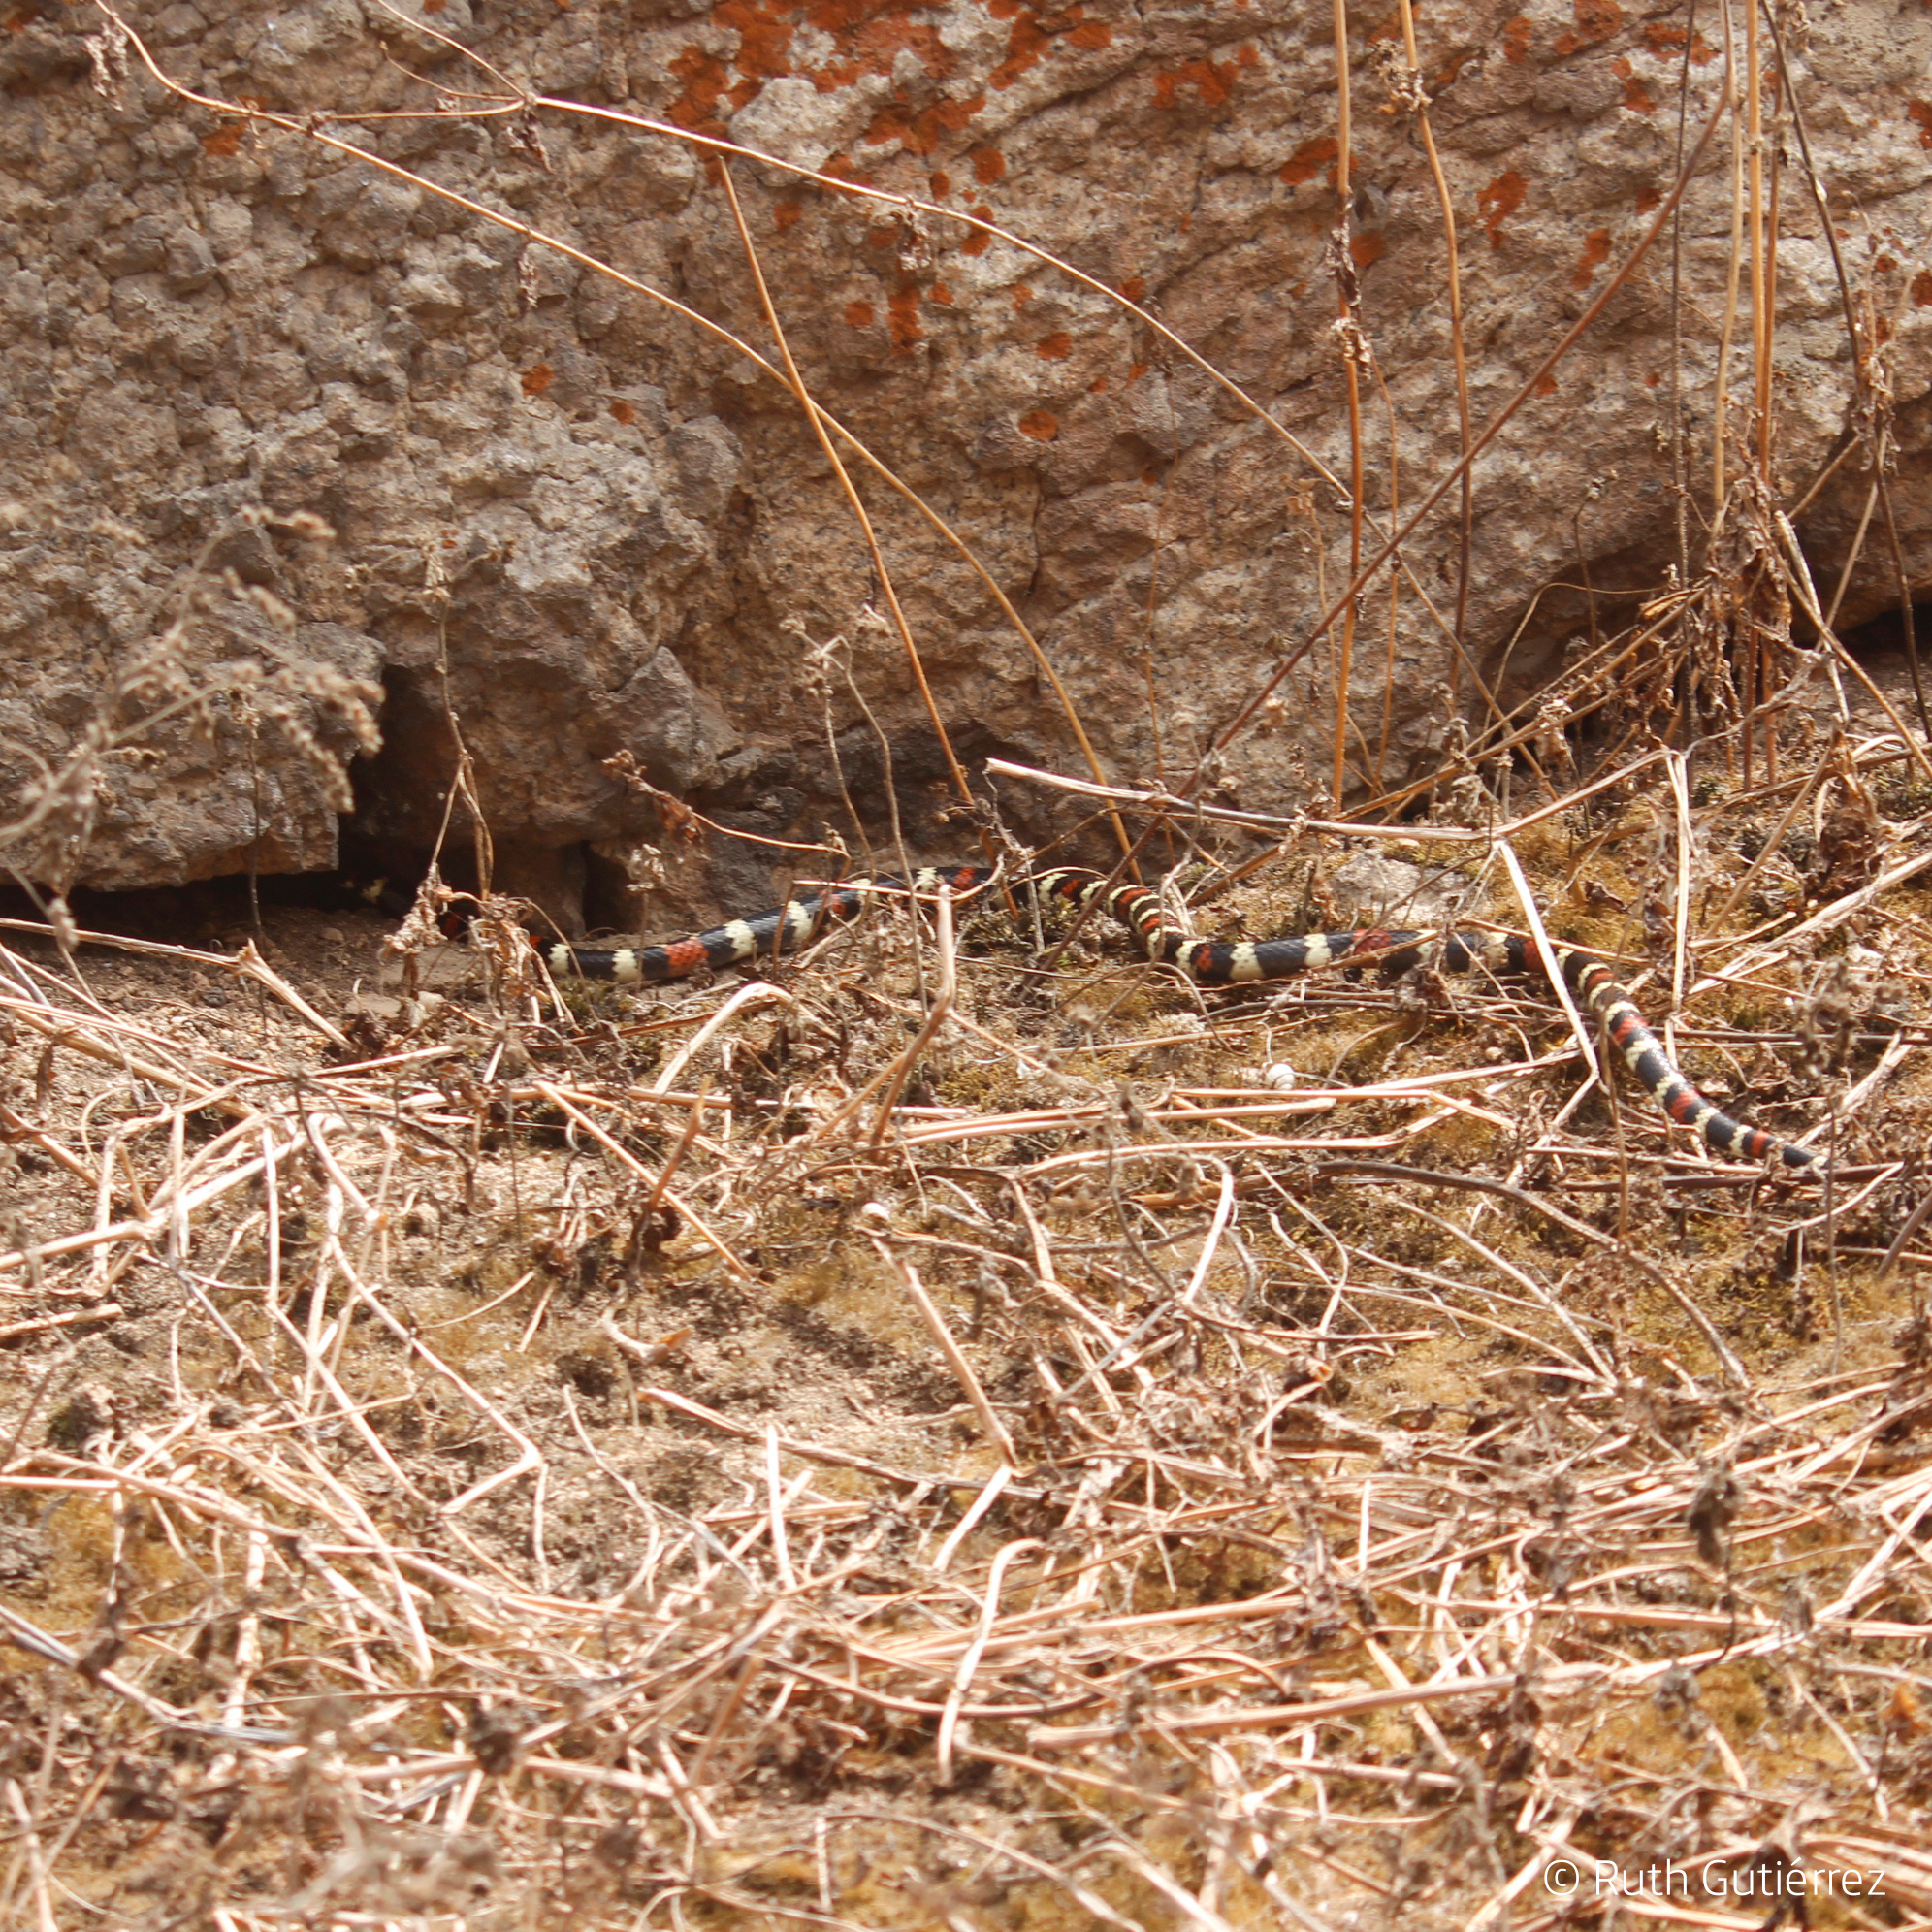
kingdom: Animalia
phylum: Chordata
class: Squamata
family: Elapidae
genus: Micrurus
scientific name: Micrurus tschudii
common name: Desert coral snake
